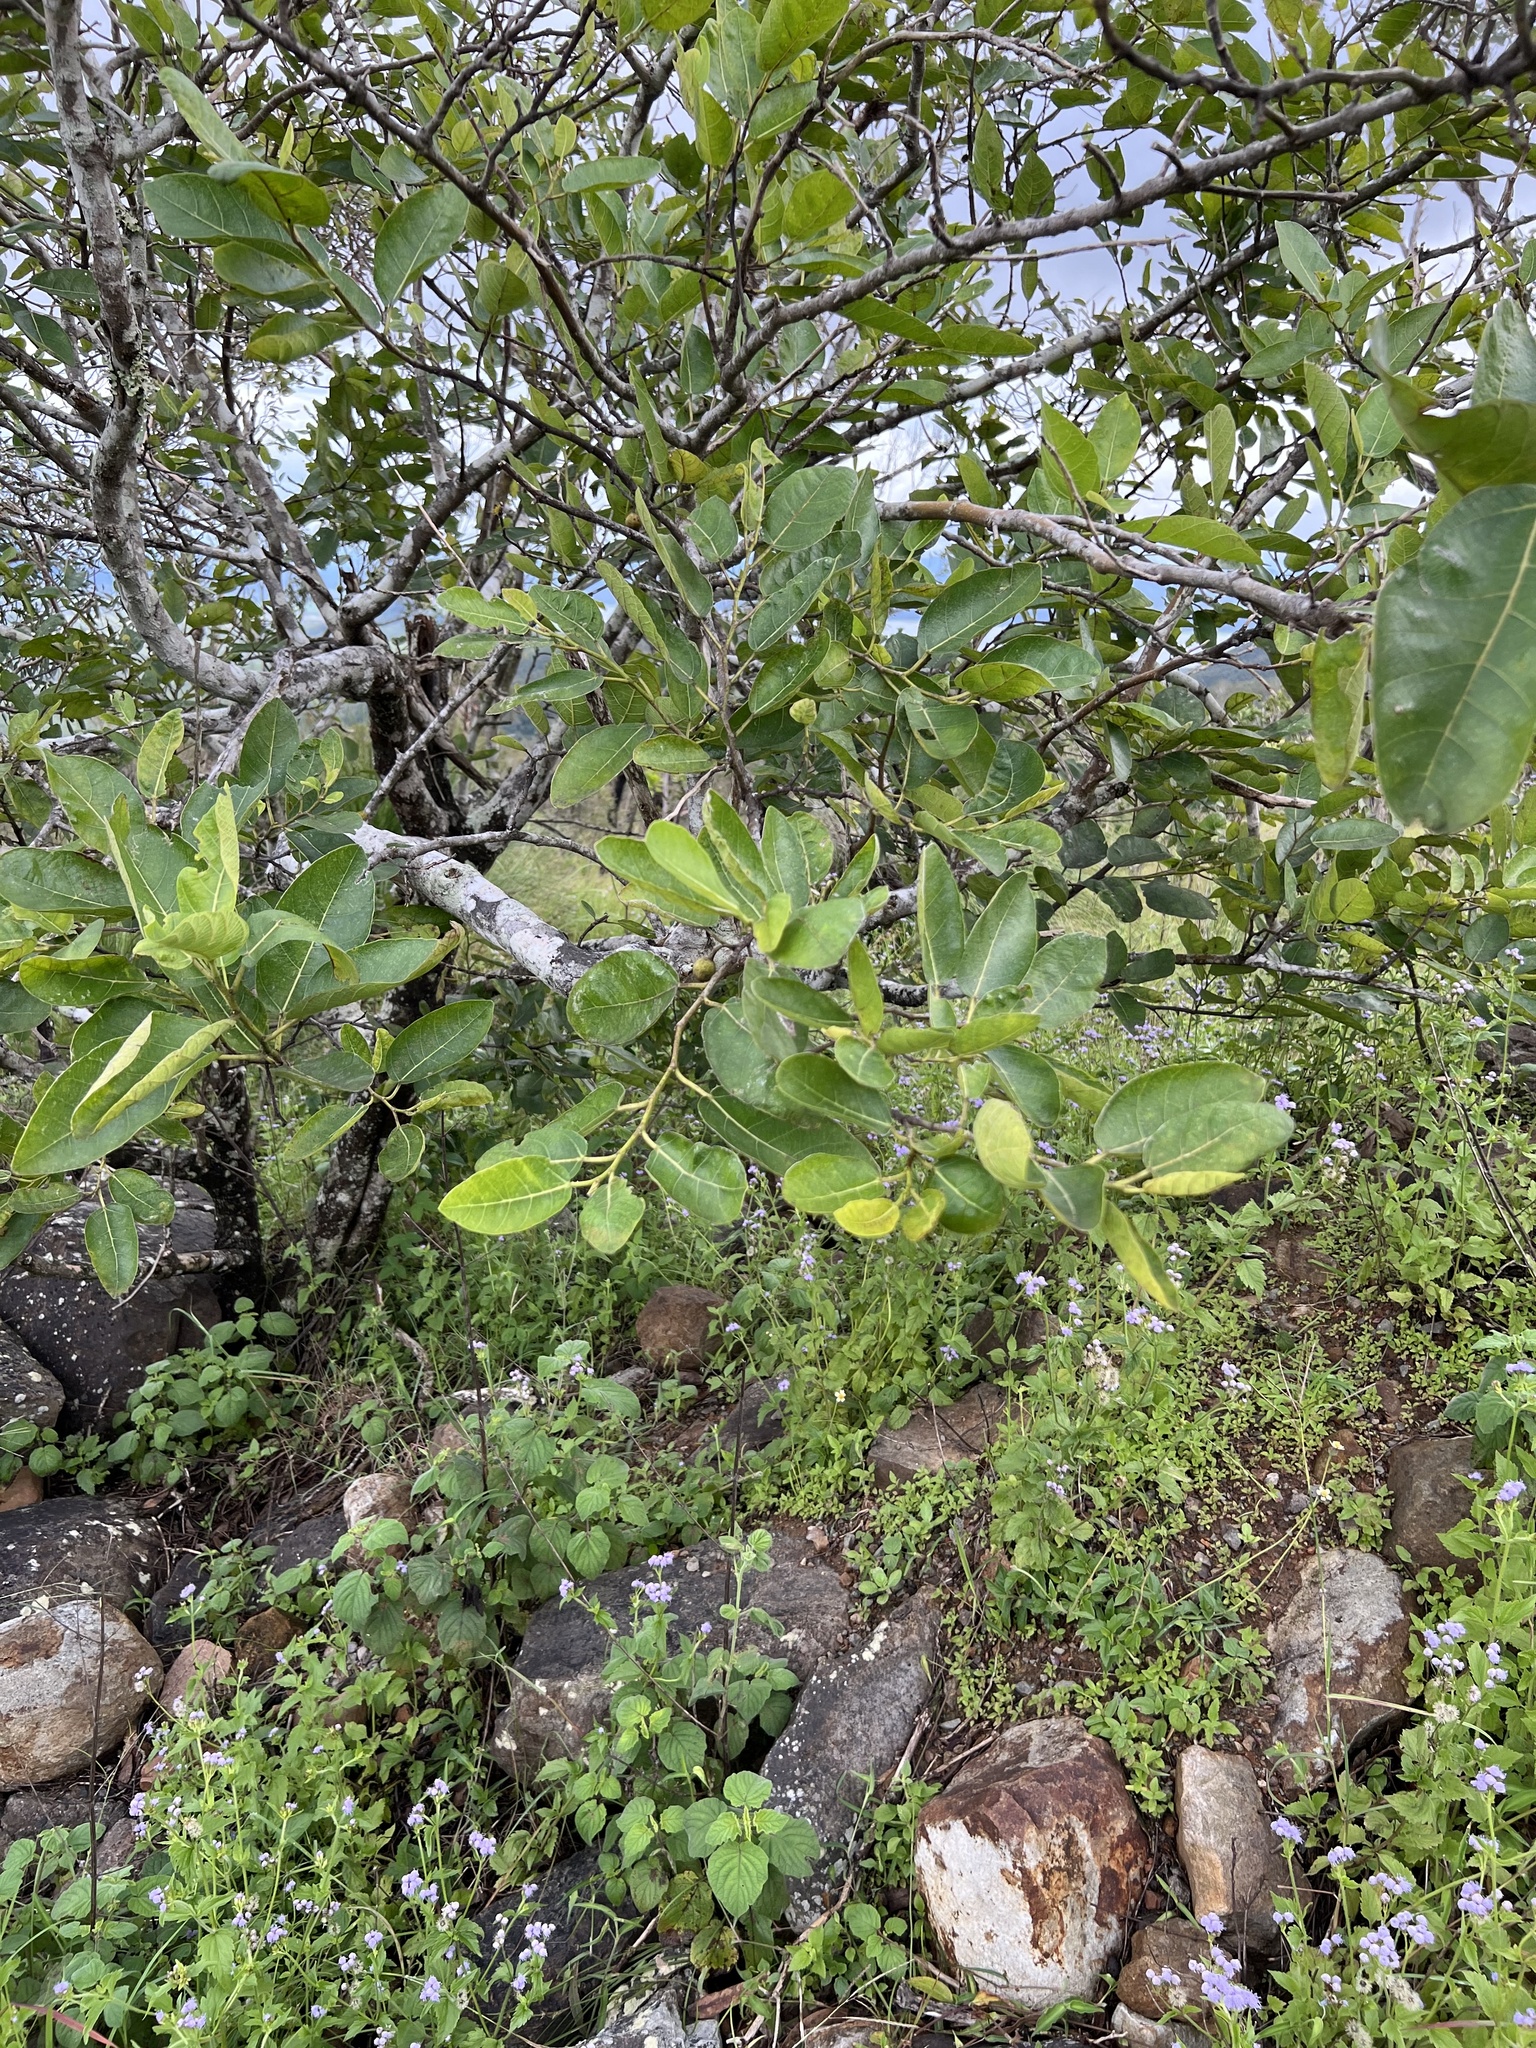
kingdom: Plantae
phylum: Tracheophyta
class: Magnoliopsida
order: Rosales
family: Moraceae
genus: Ficus
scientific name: Ficus opposita
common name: Figwood
